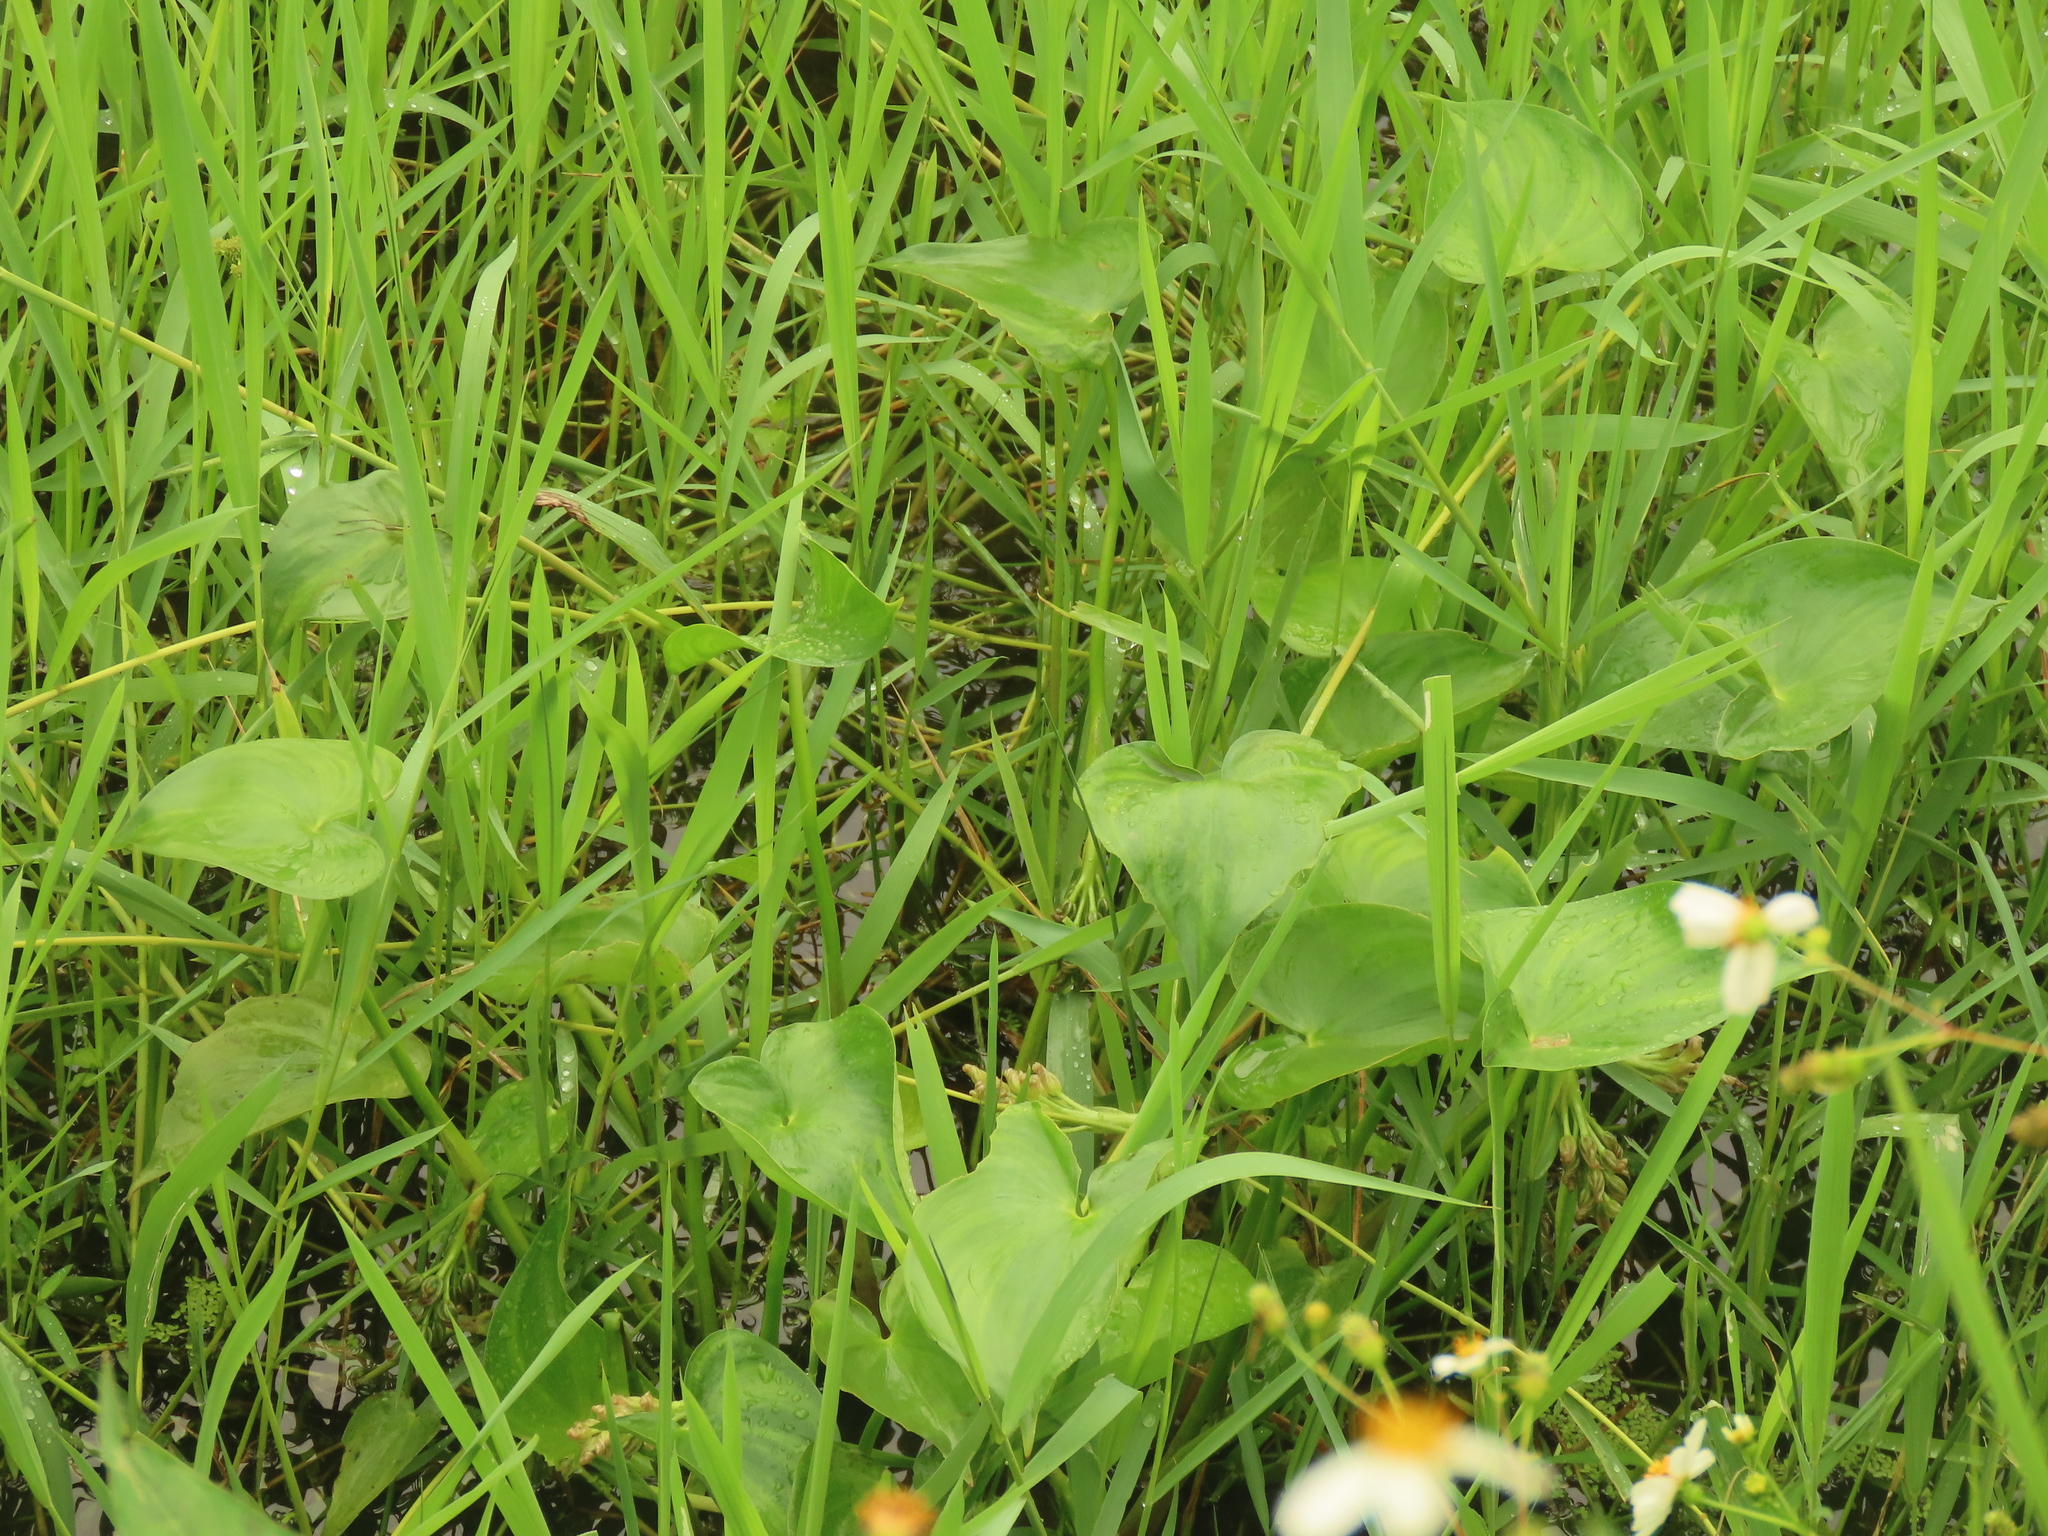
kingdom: Plantae
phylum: Tracheophyta
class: Liliopsida
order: Commelinales
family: Pontederiaceae
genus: Pontederia
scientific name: Pontederia vaginalis
